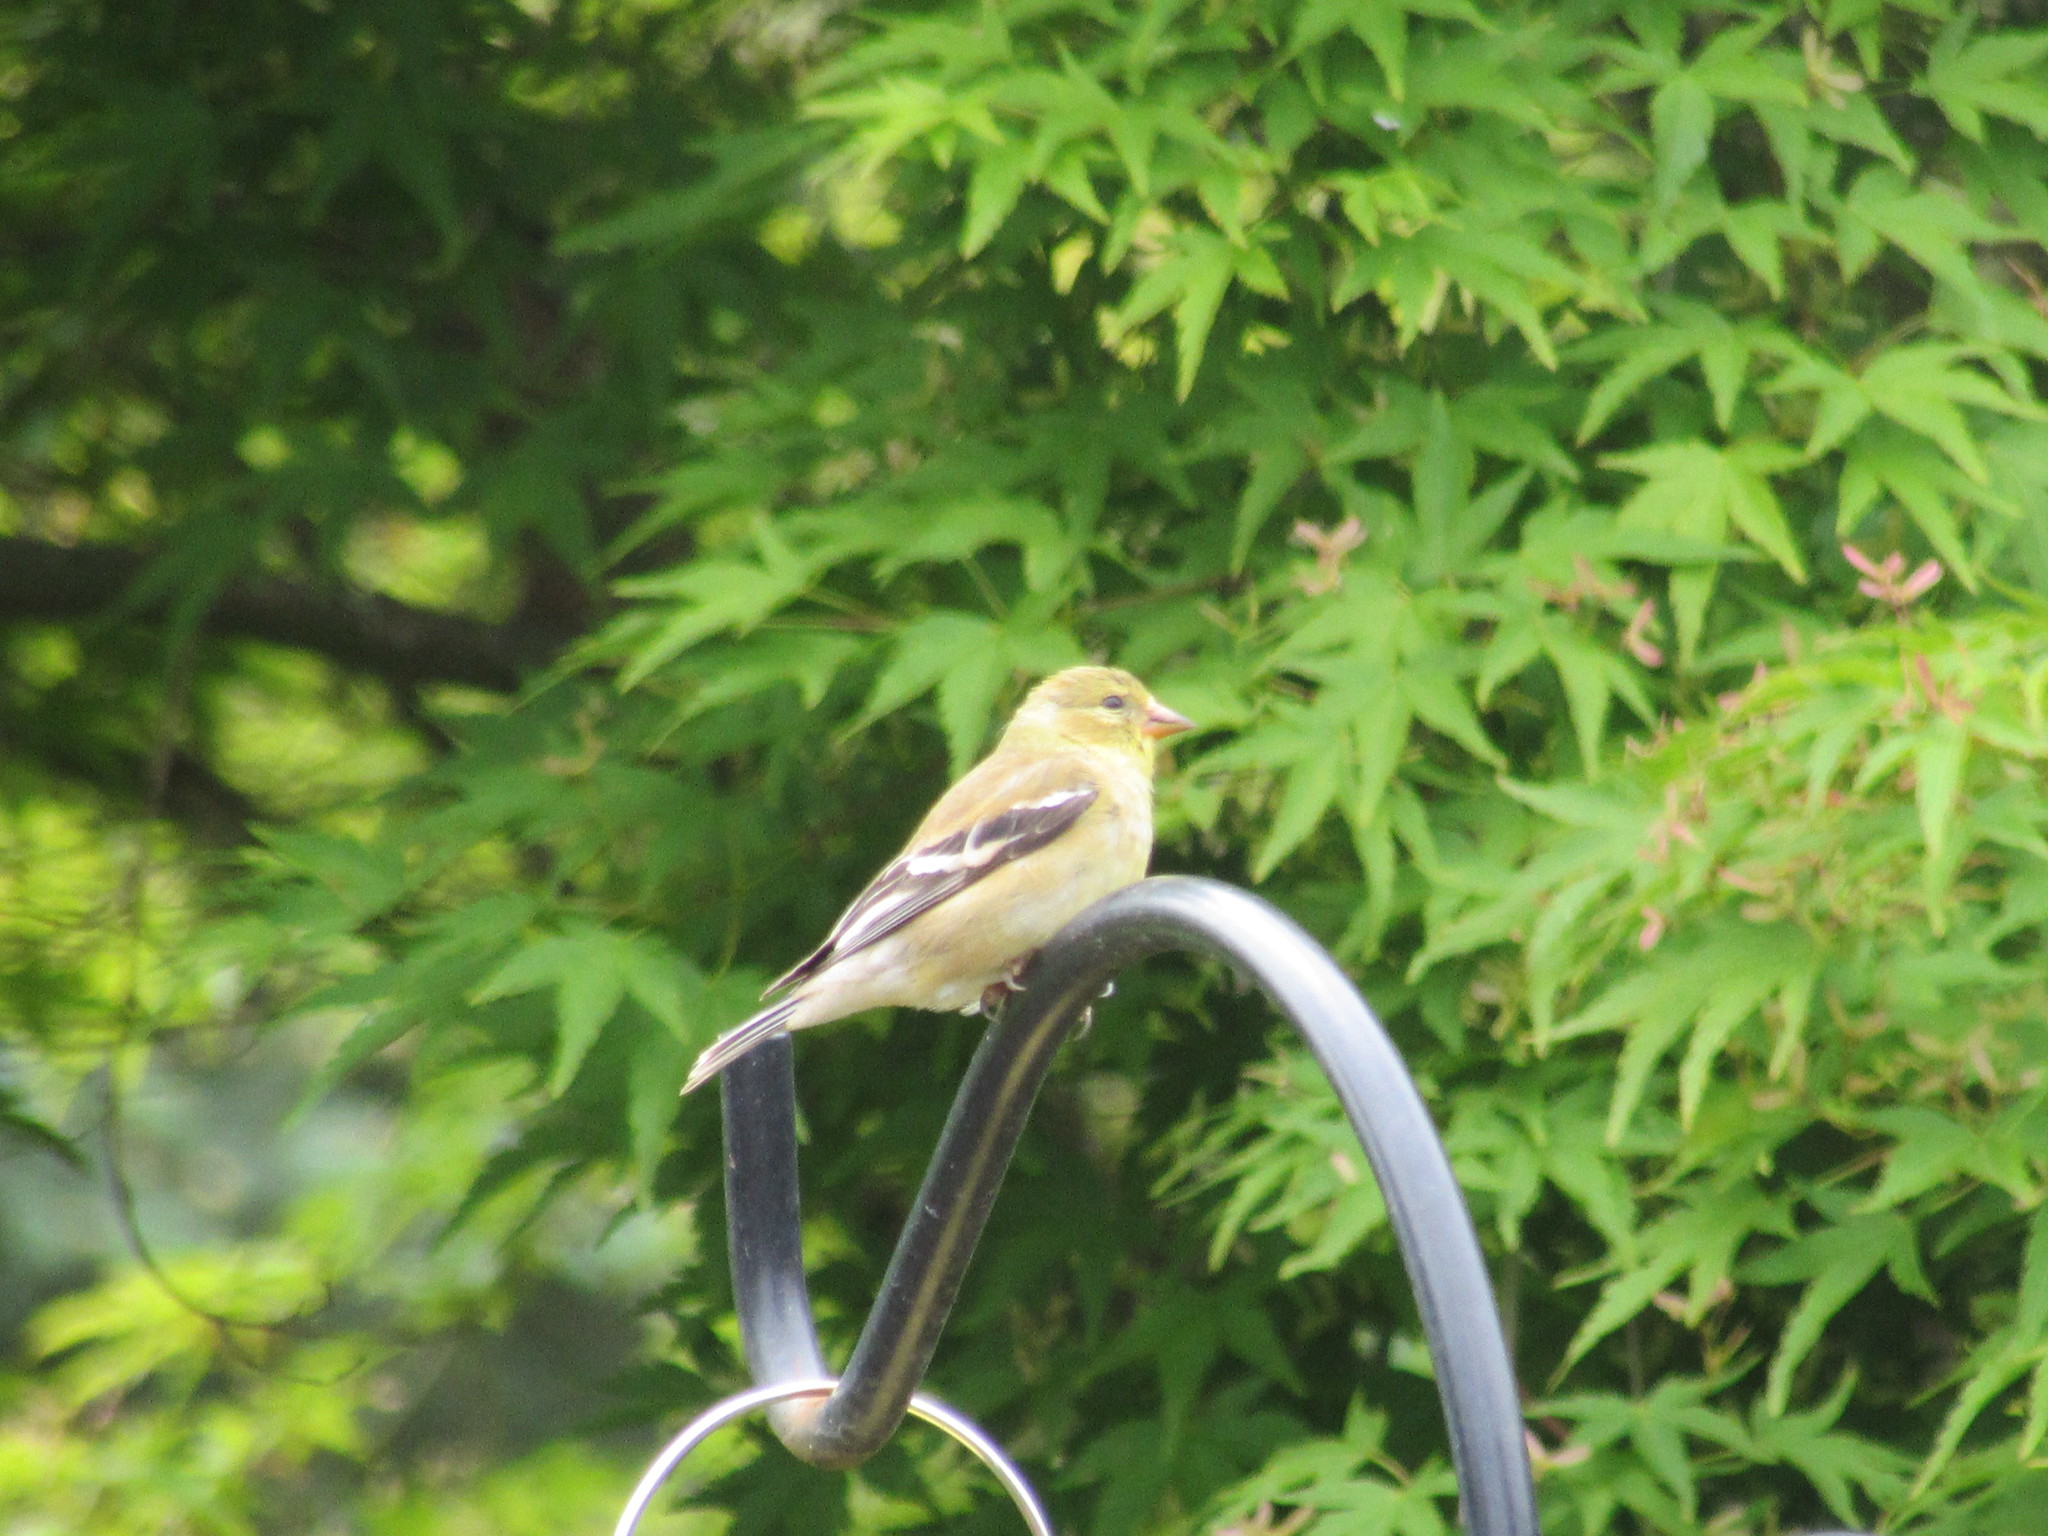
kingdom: Animalia
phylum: Chordata
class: Aves
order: Passeriformes
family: Fringillidae
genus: Spinus
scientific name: Spinus tristis
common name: American goldfinch
